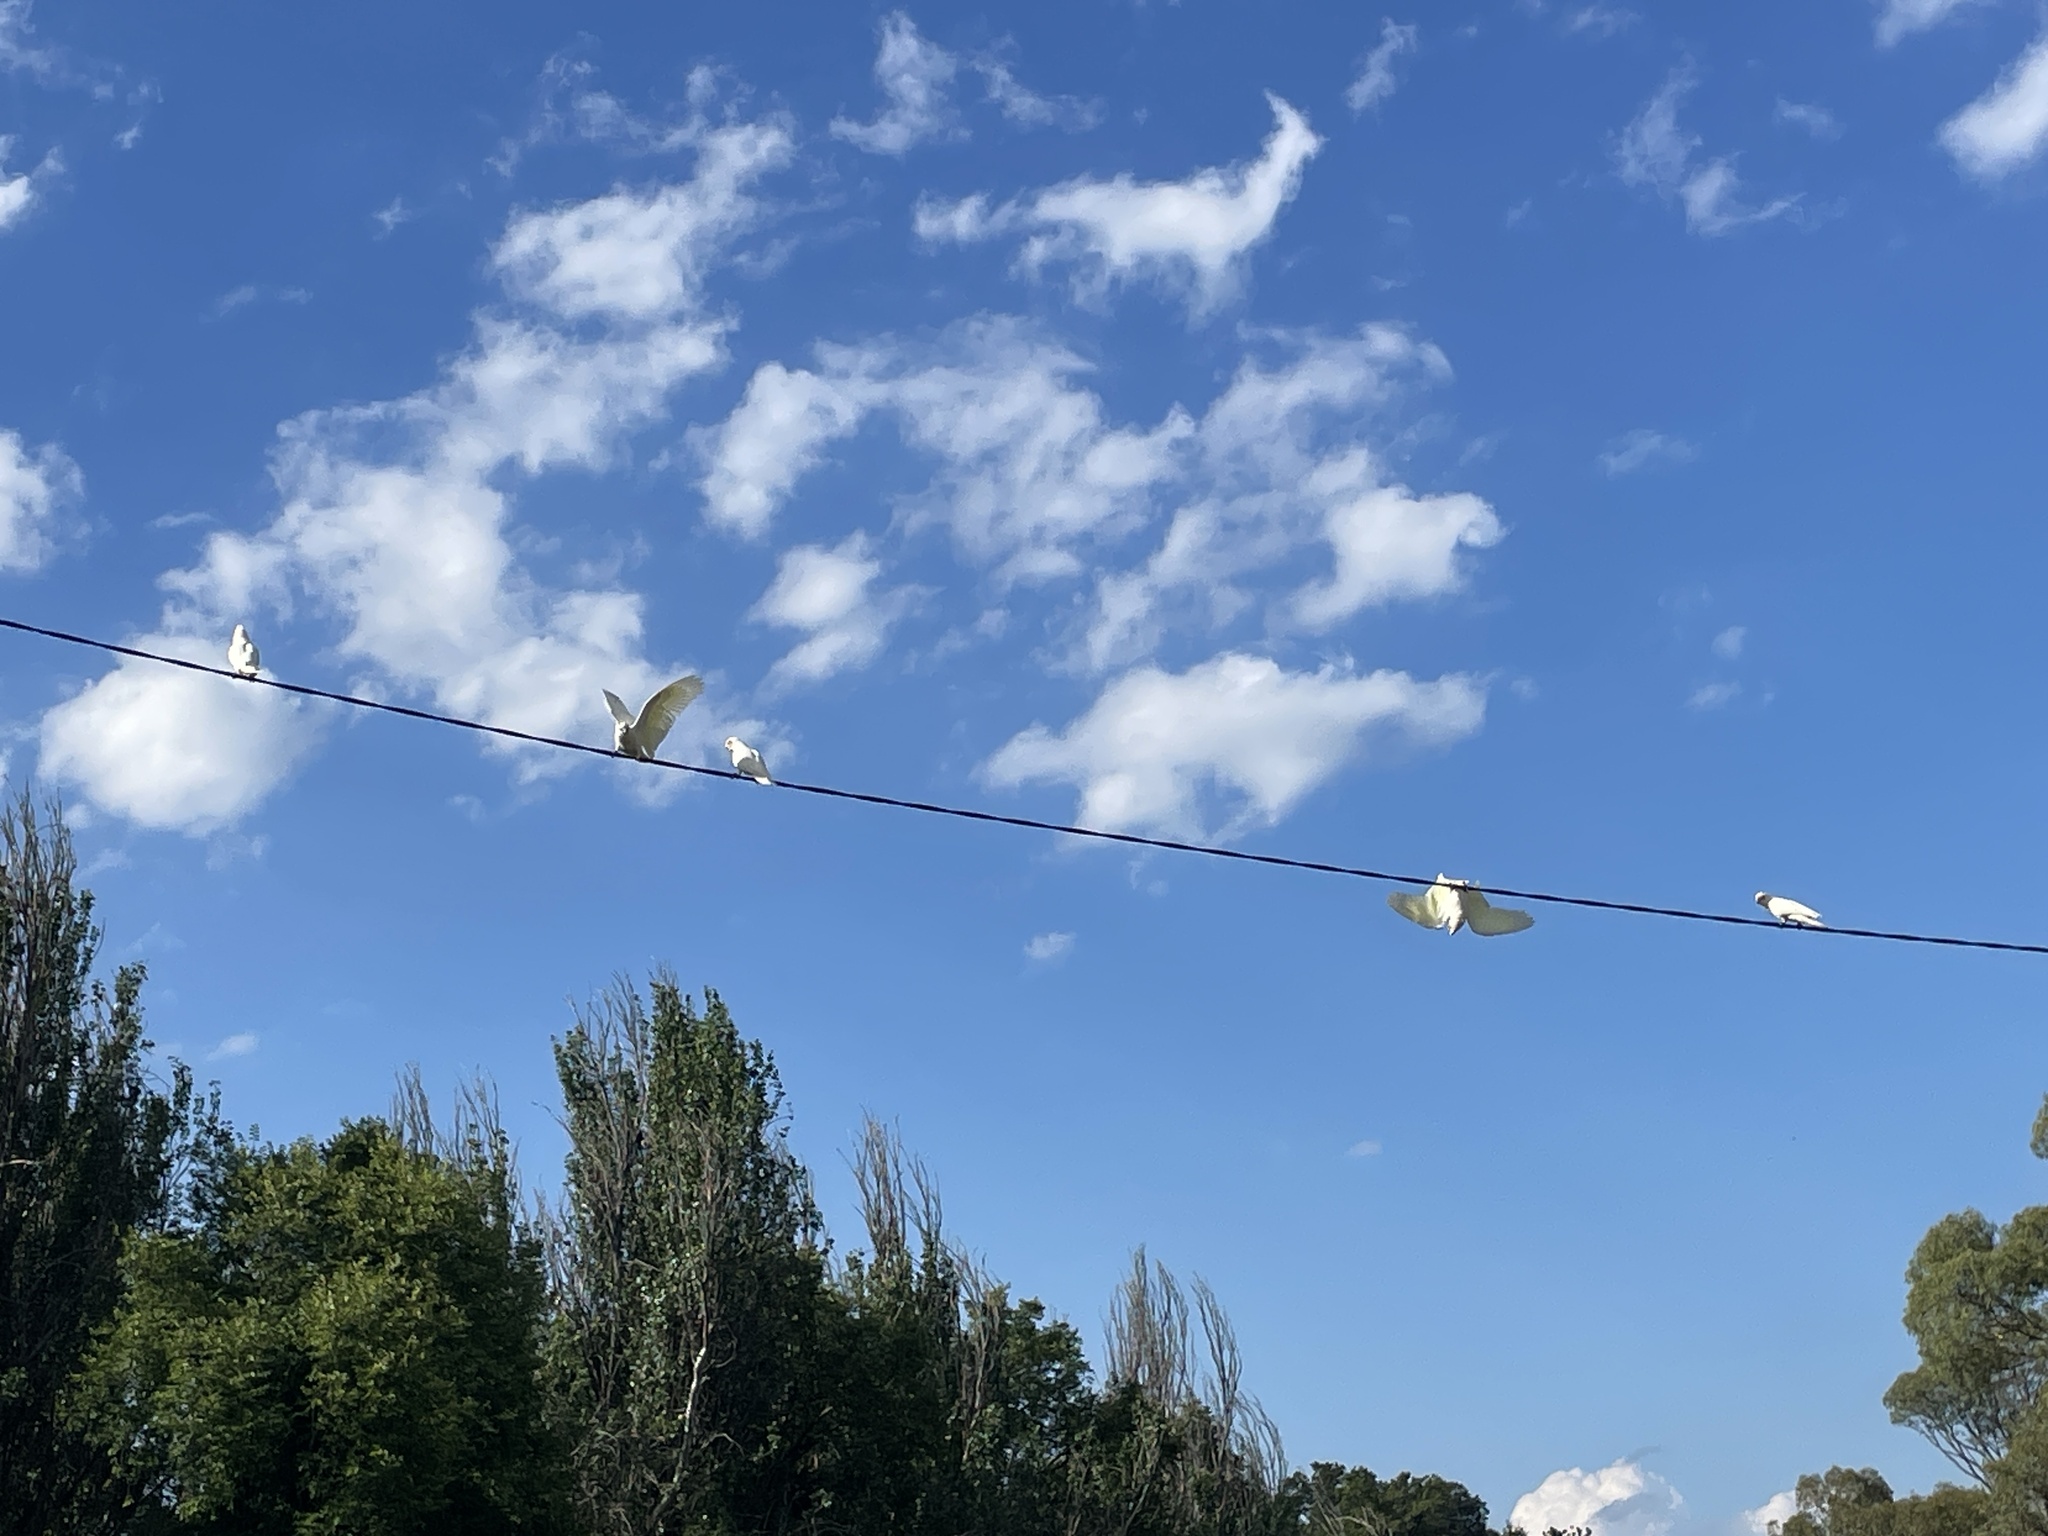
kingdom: Animalia
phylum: Chordata
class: Aves
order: Psittaciformes
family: Psittacidae
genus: Cacatua
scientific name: Cacatua sanguinea
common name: Little corella
